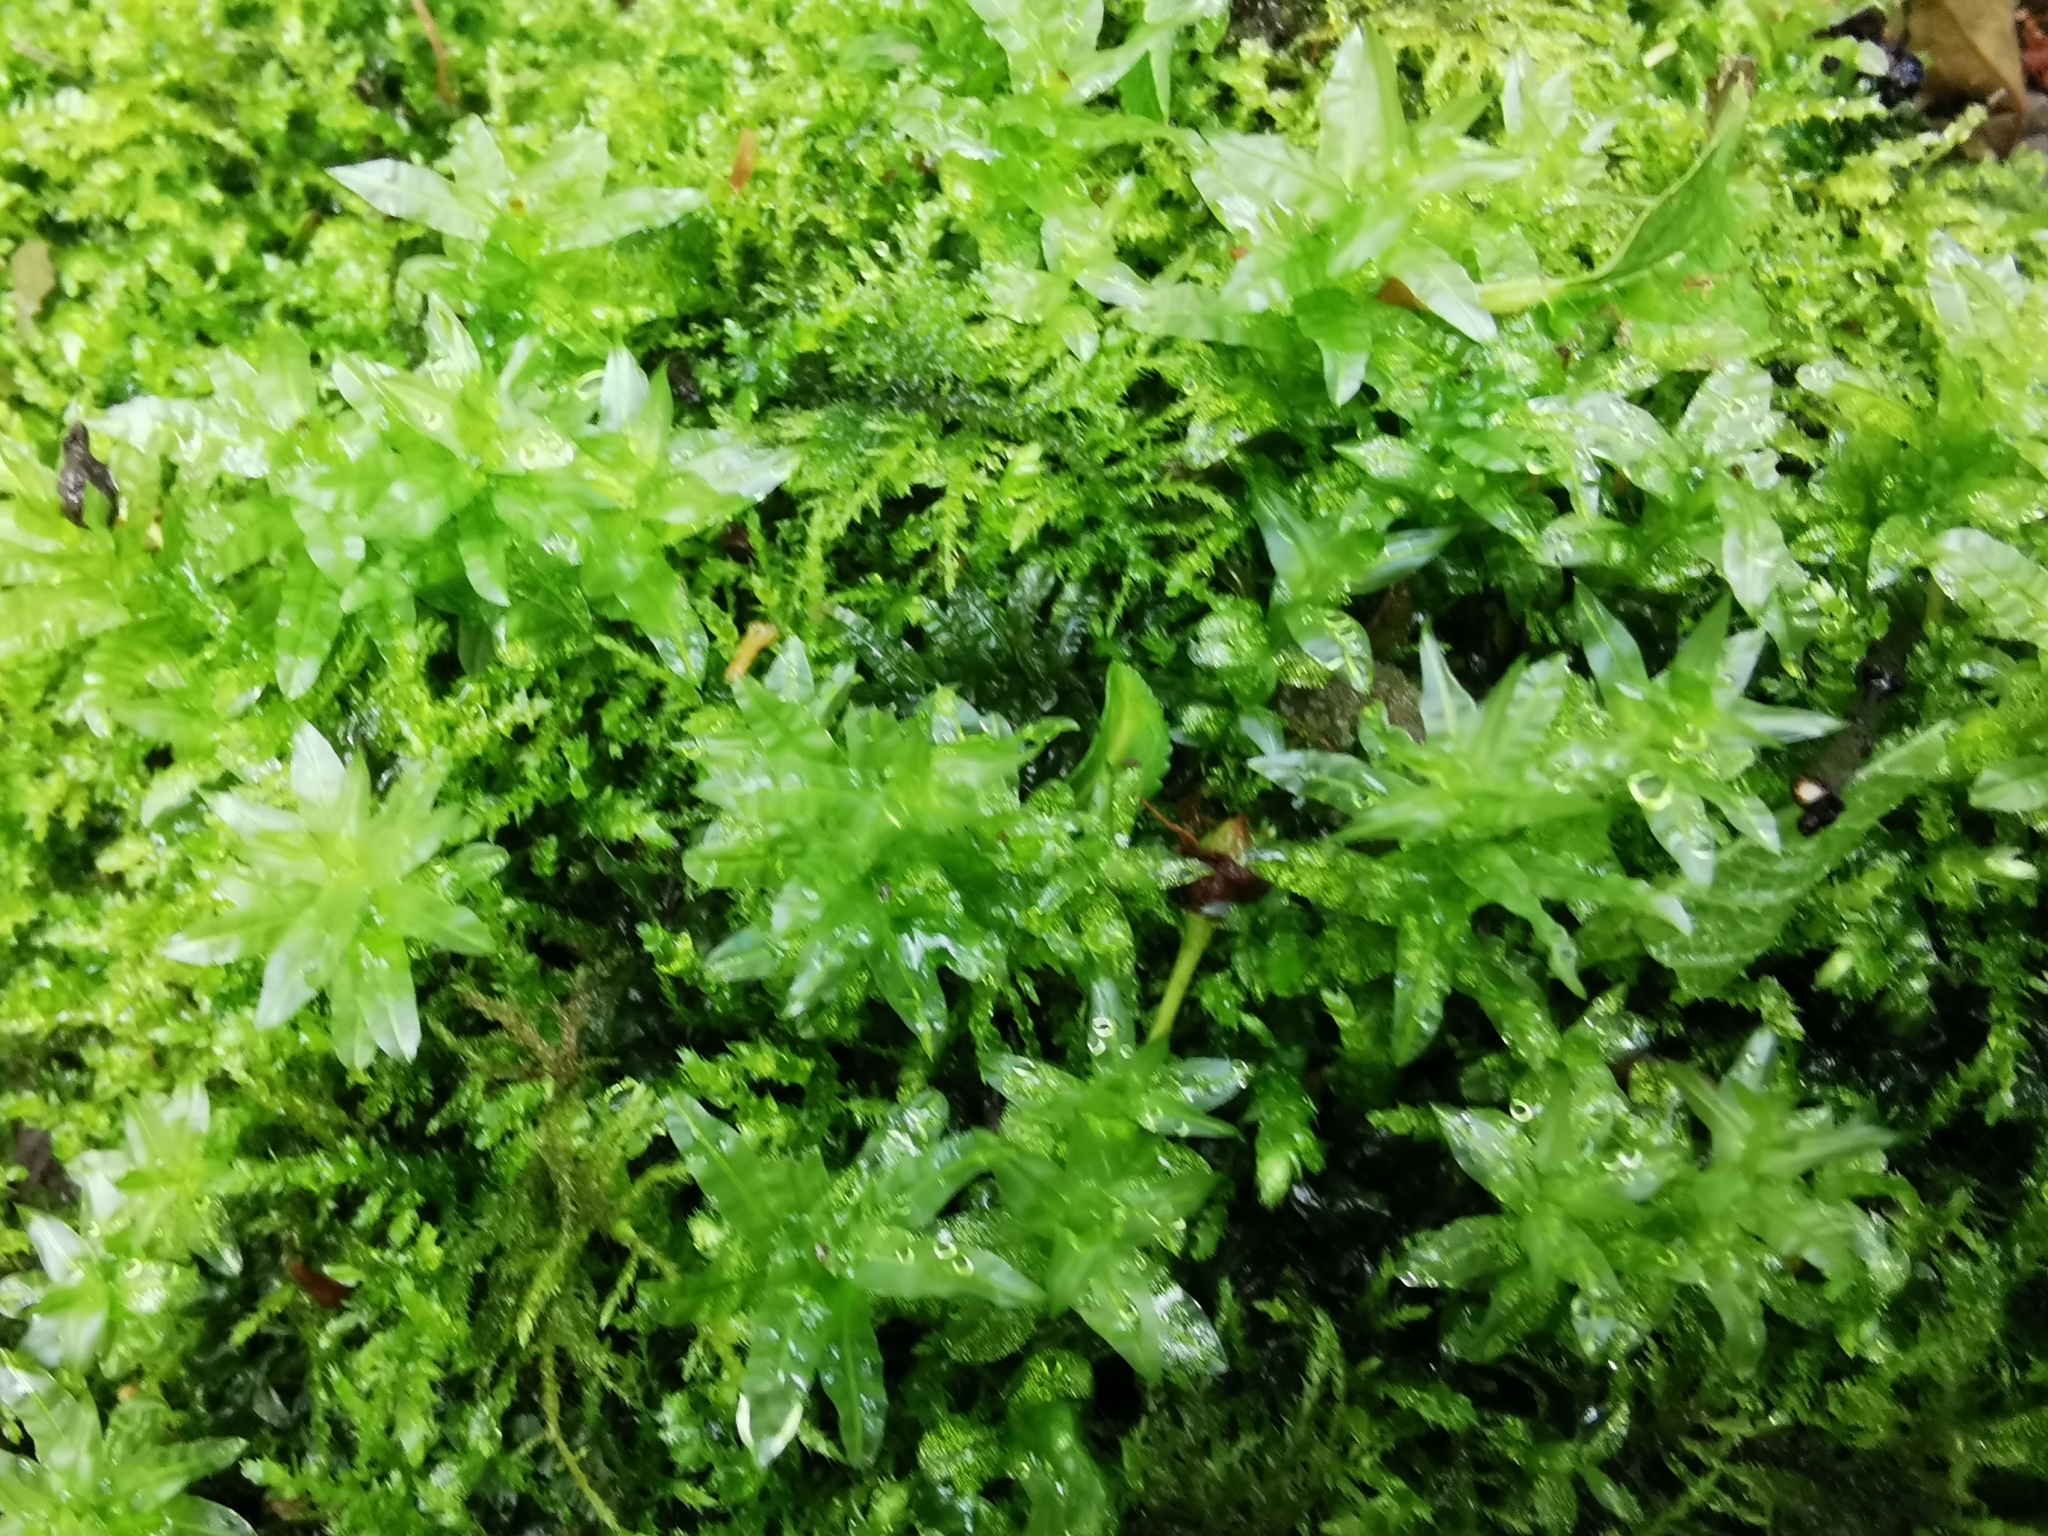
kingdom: Plantae
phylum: Bryophyta
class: Bryopsida
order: Bryales
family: Mniaceae
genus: Plagiomnium
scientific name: Plagiomnium undulatum
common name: Hart's-tongue thyme-moss
